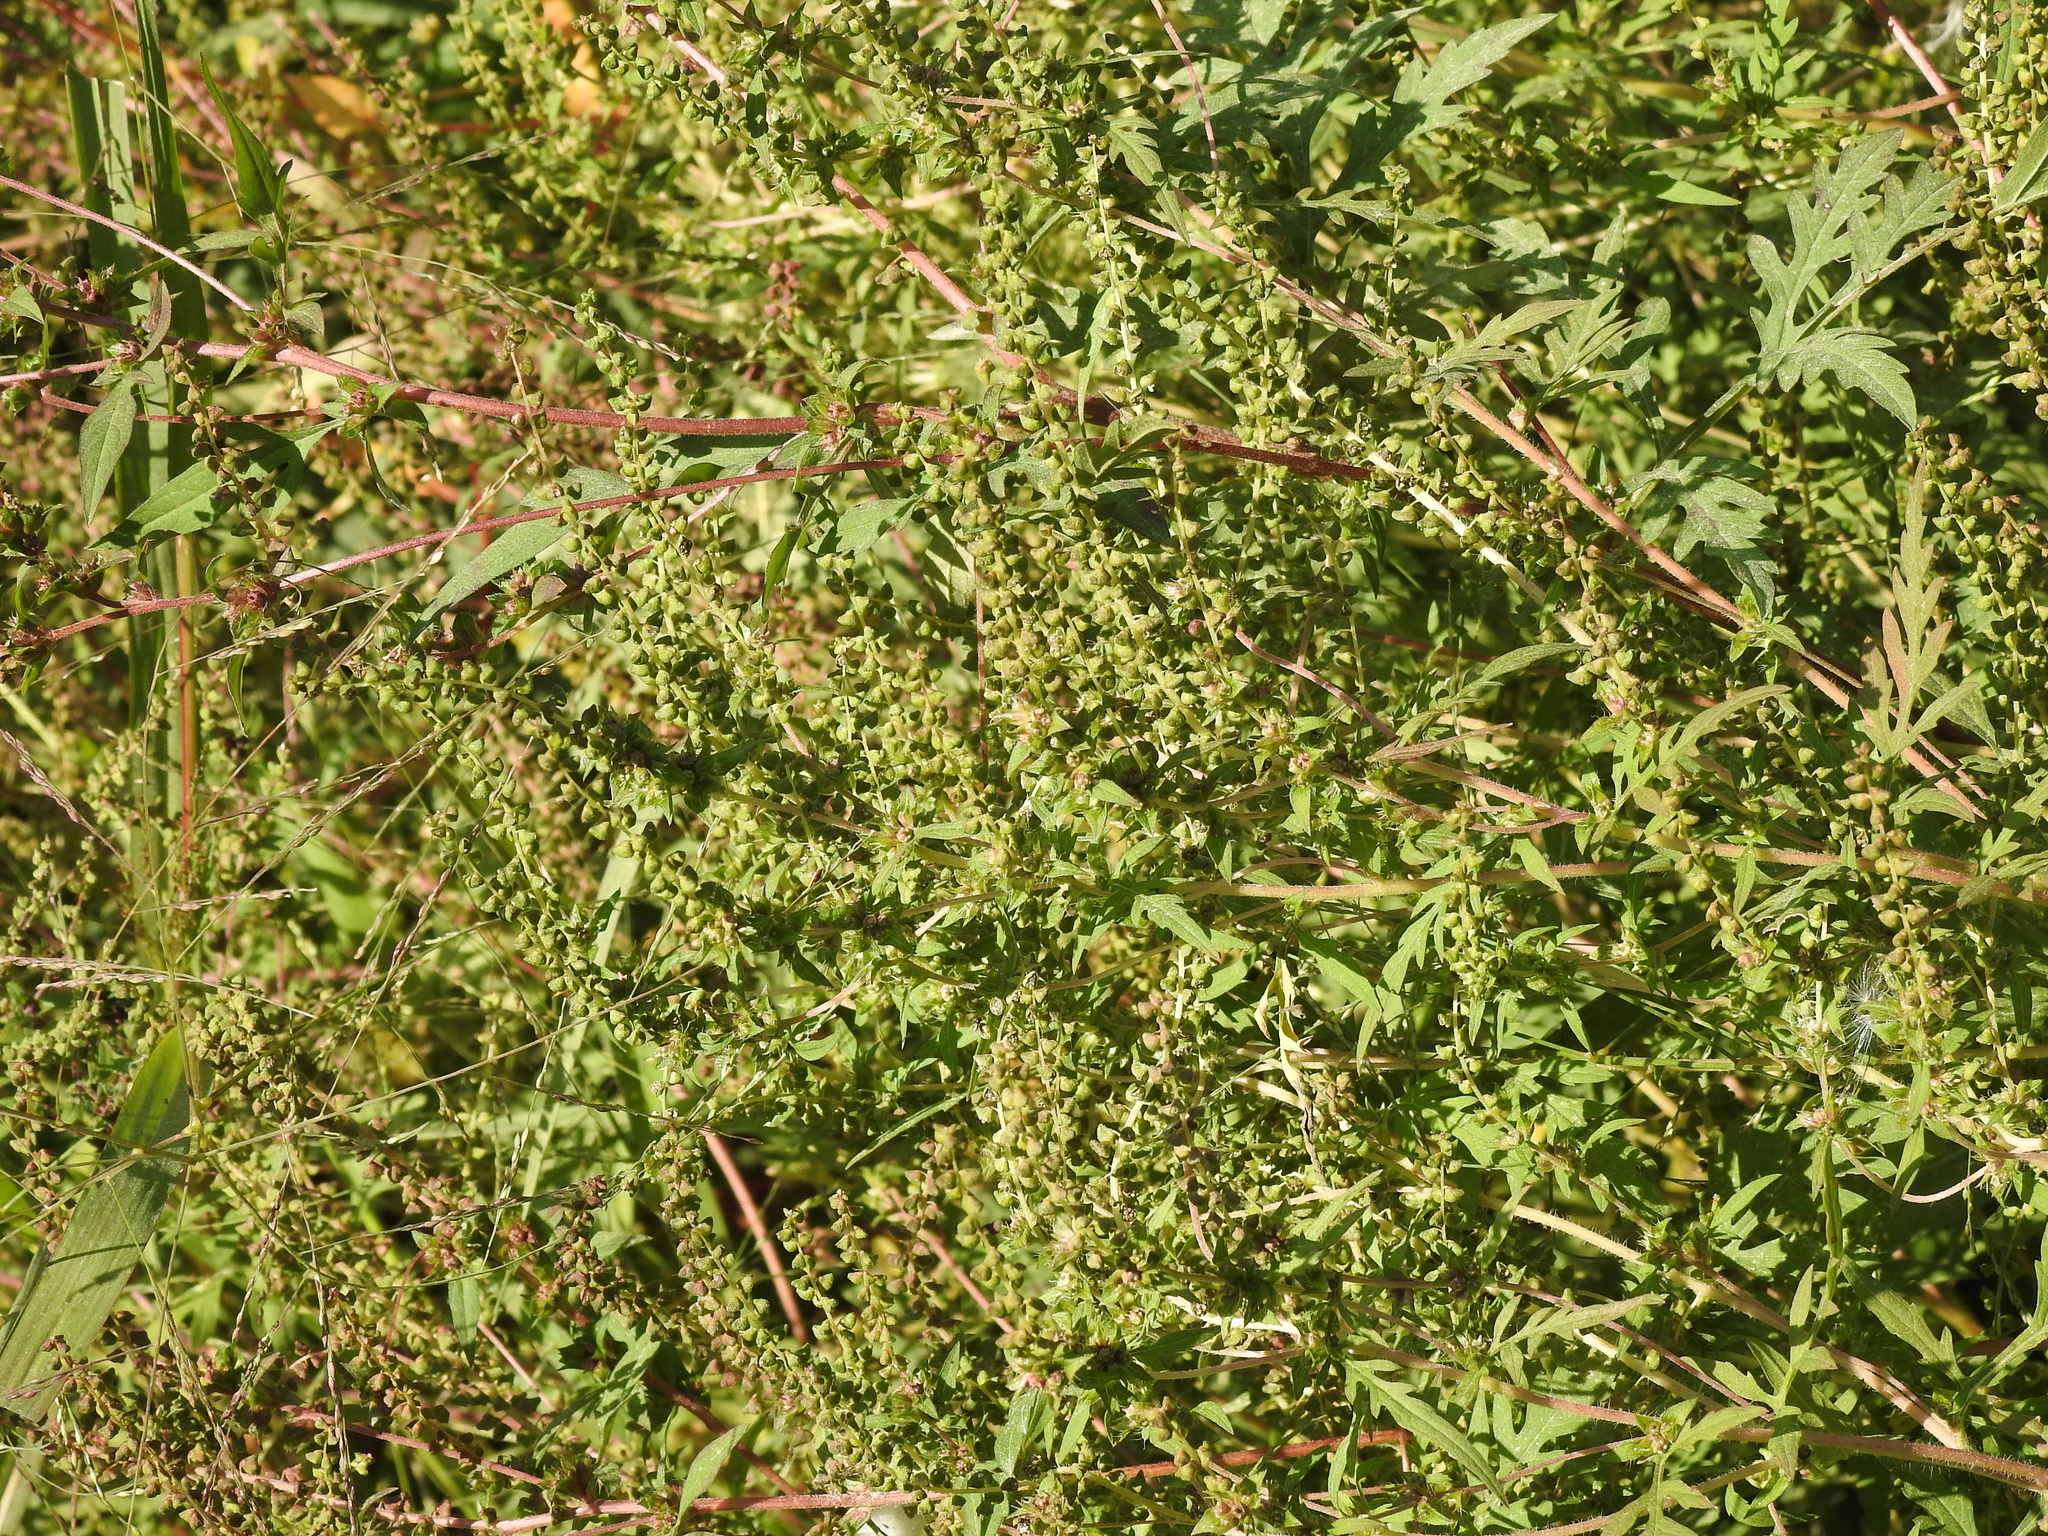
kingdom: Plantae
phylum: Tracheophyta
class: Magnoliopsida
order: Asterales
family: Asteraceae
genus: Ambrosia
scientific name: Ambrosia artemisiifolia
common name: Annual ragweed
